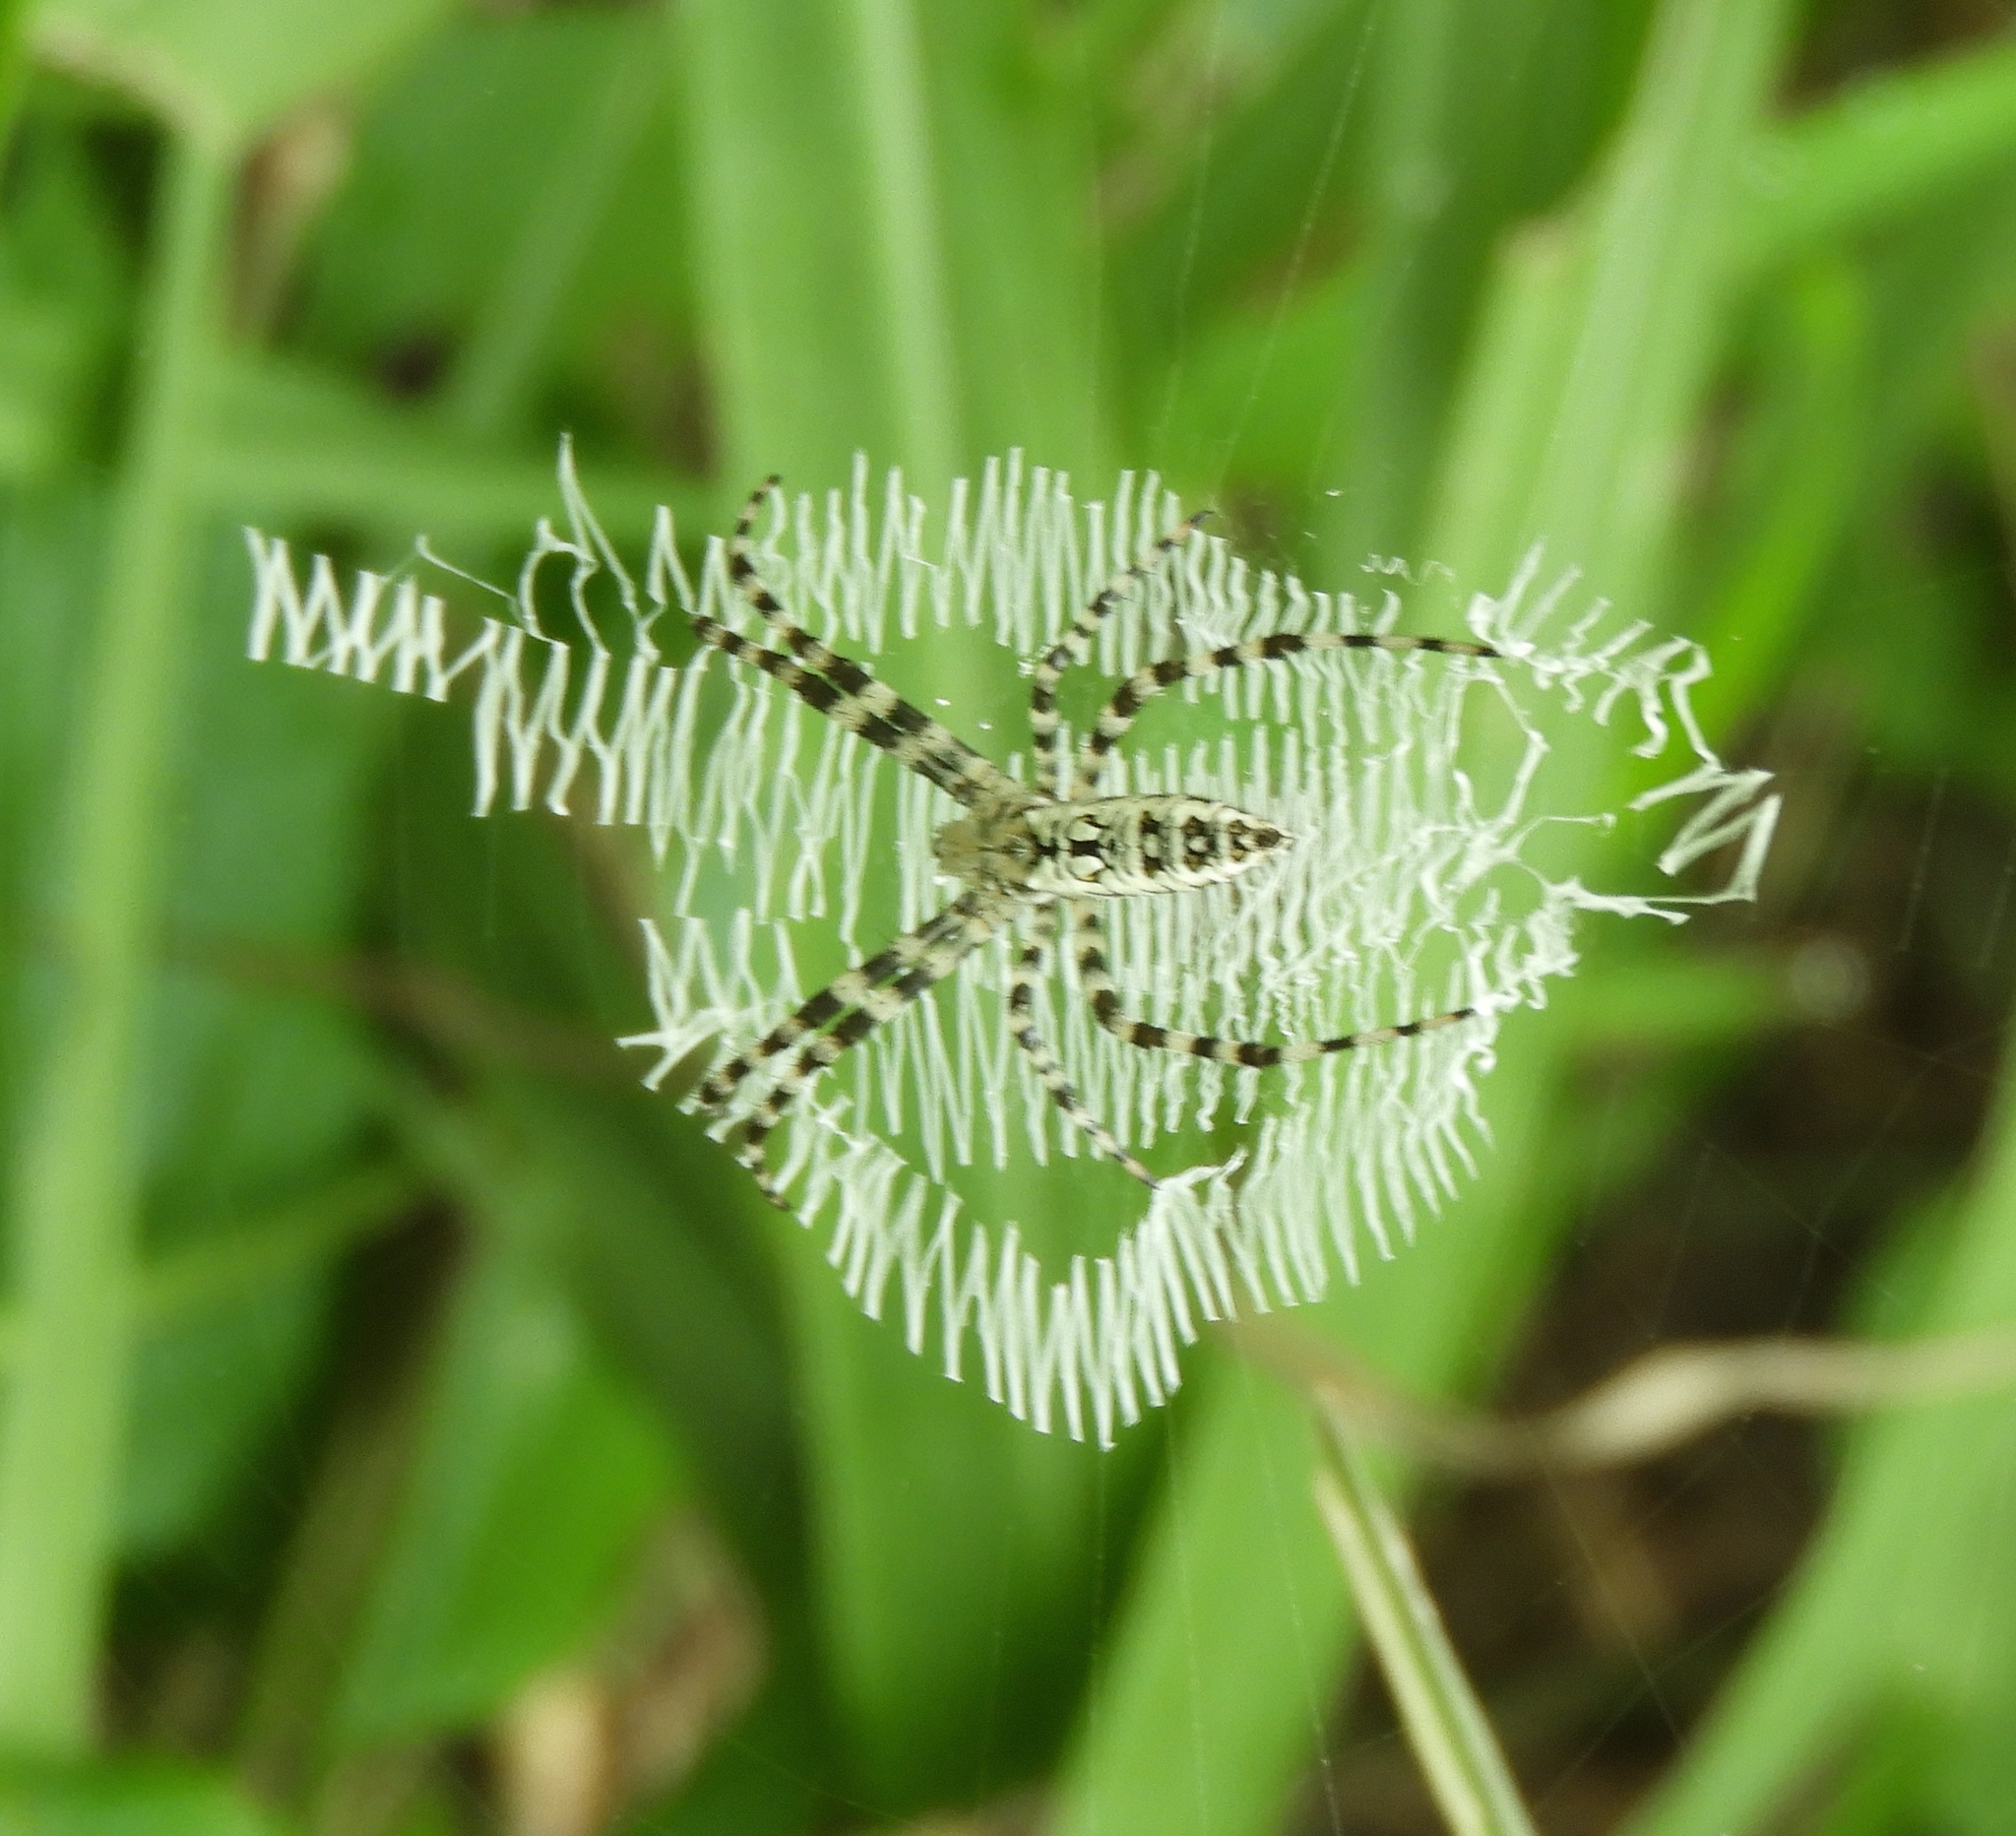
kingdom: Animalia
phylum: Arthropoda
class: Arachnida
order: Araneae
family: Araneidae
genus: Argiope
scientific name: Argiope aurantia
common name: Orb weavers
